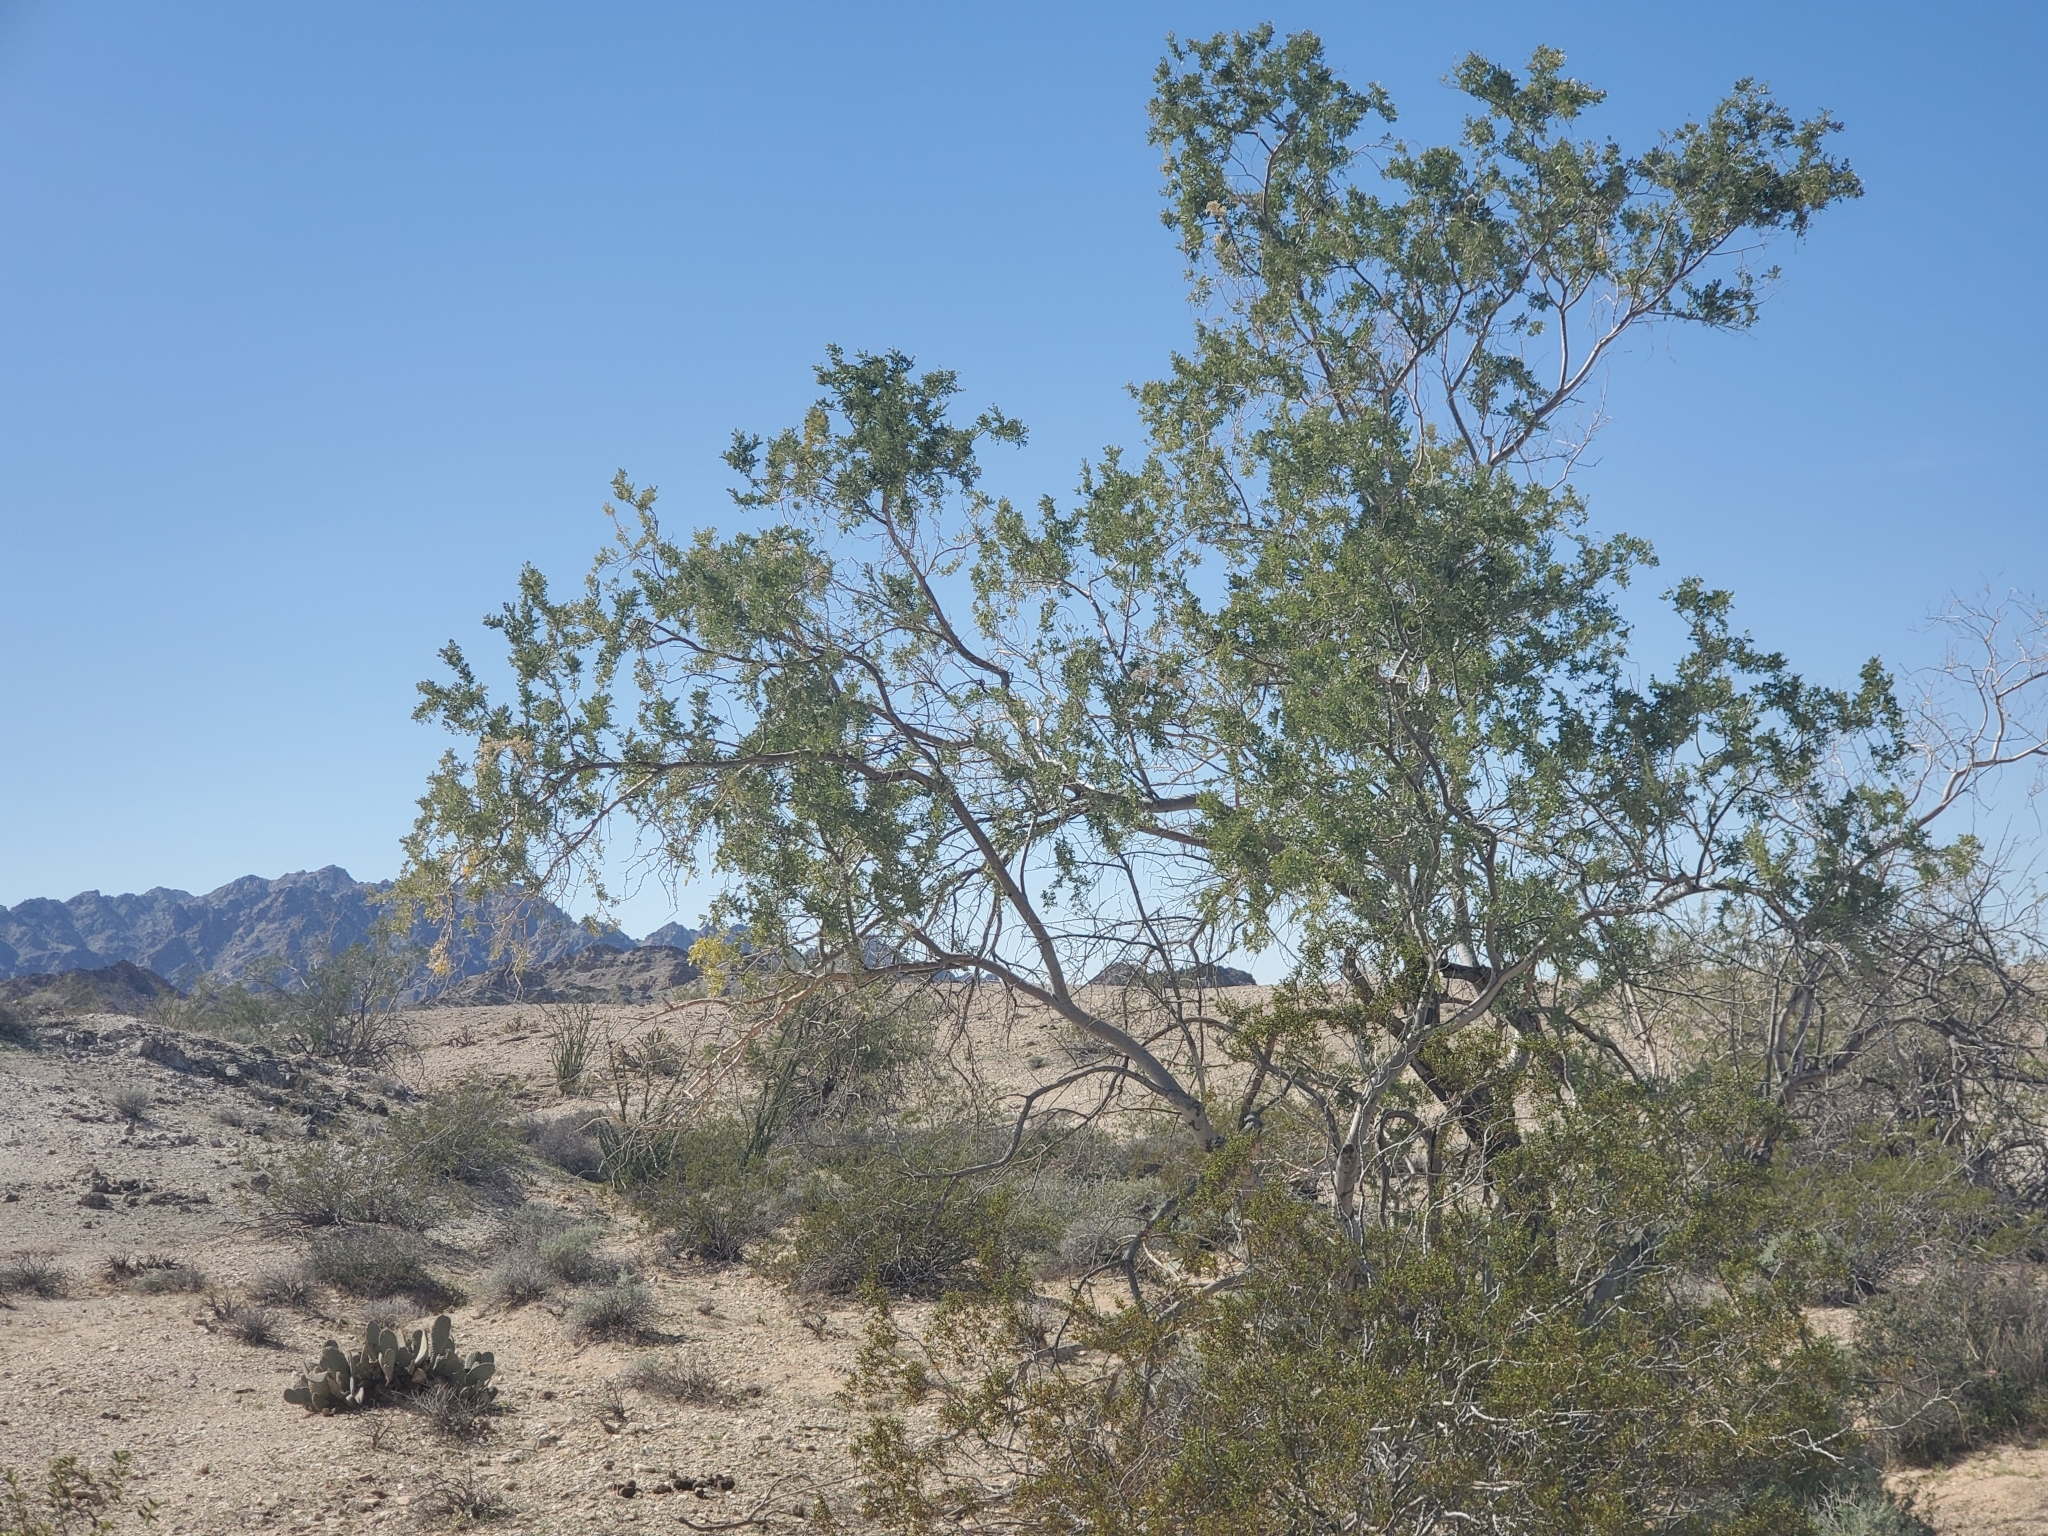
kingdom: Plantae
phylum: Tracheophyta
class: Magnoliopsida
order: Fabales
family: Fabaceae
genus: Olneya
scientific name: Olneya tesota
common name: Desert ironwood
